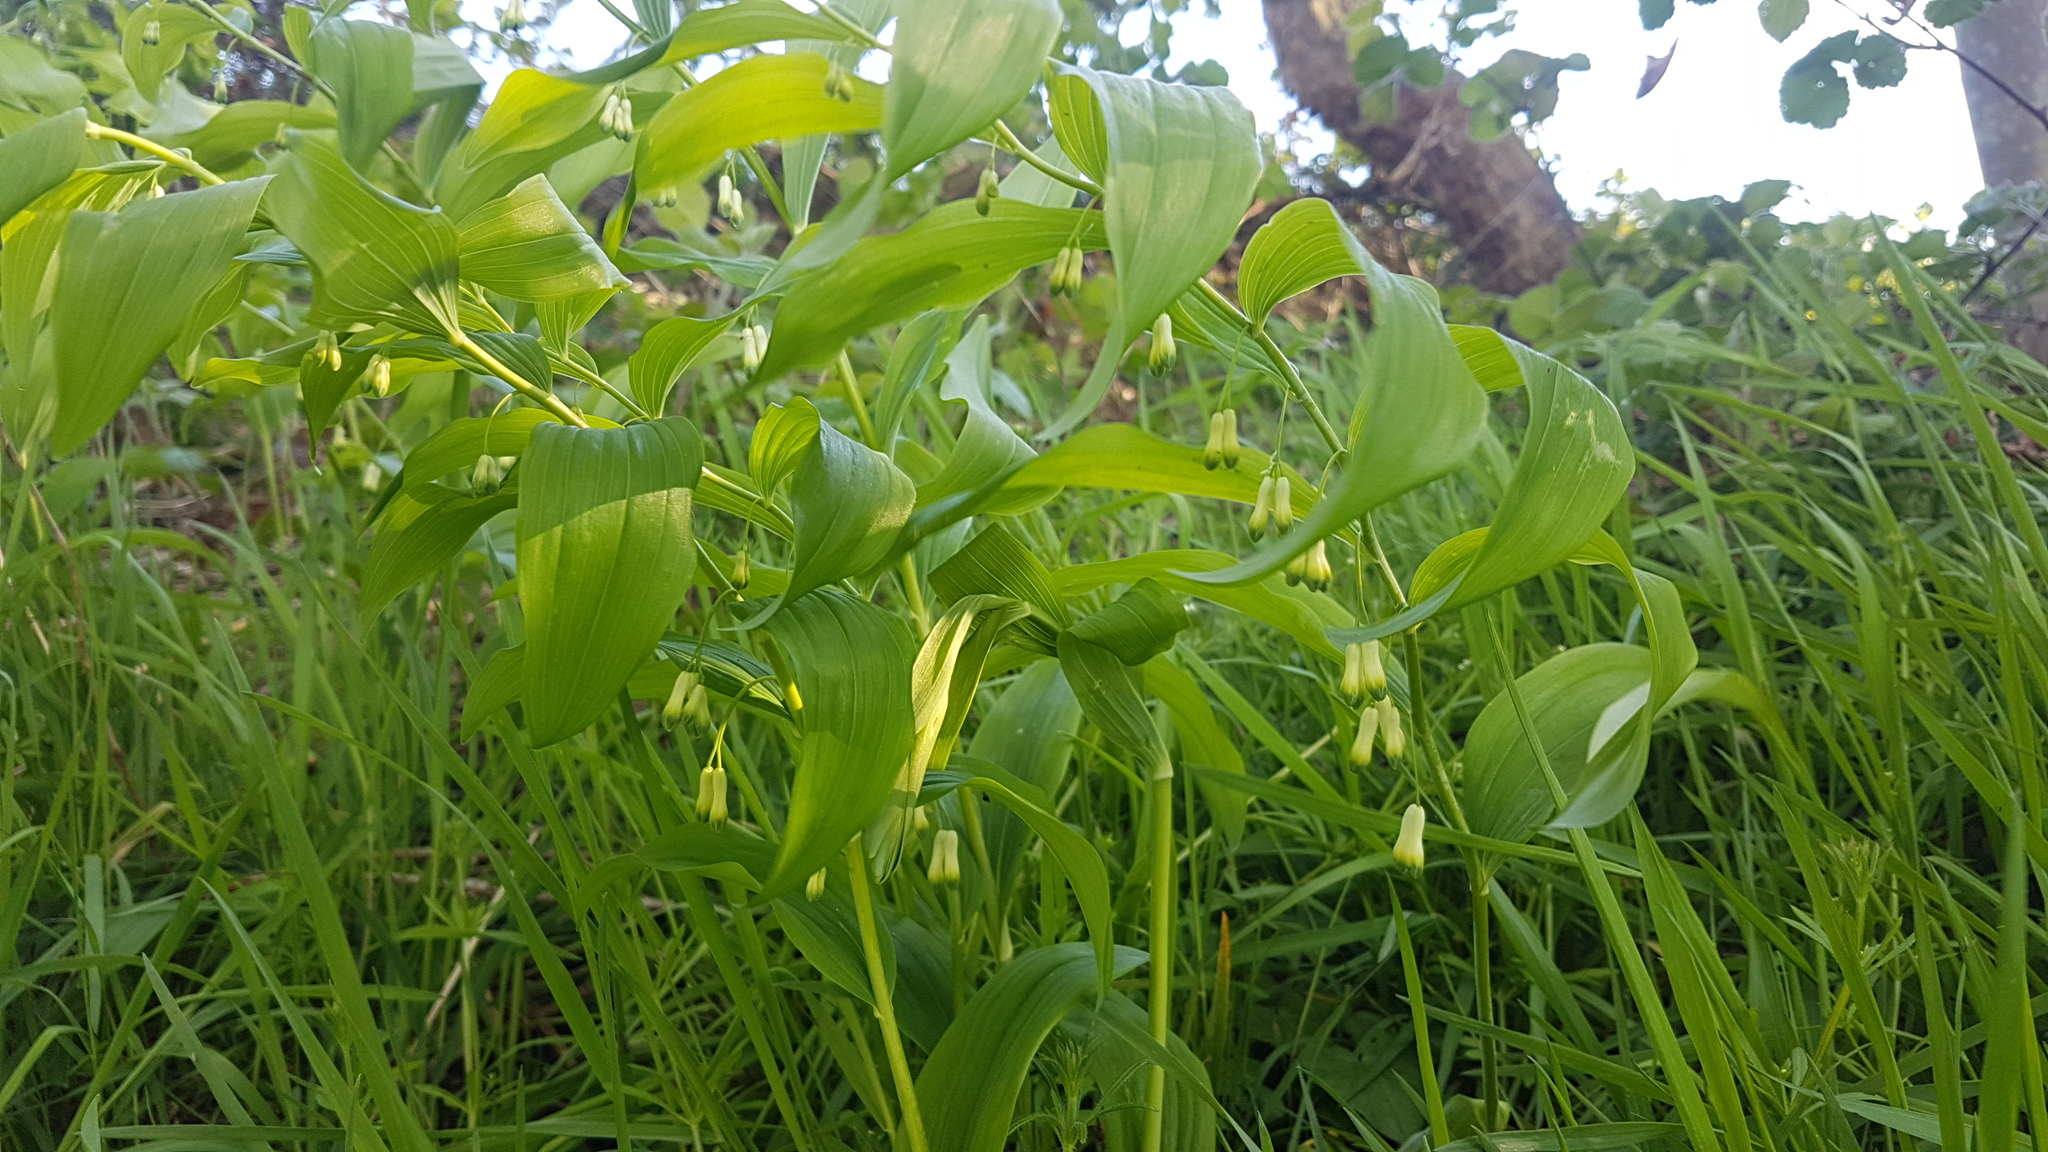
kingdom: Plantae
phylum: Tracheophyta
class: Liliopsida
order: Asparagales
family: Asparagaceae
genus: Polygonatum
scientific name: Polygonatum multiflorum
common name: Solomon's-seal
